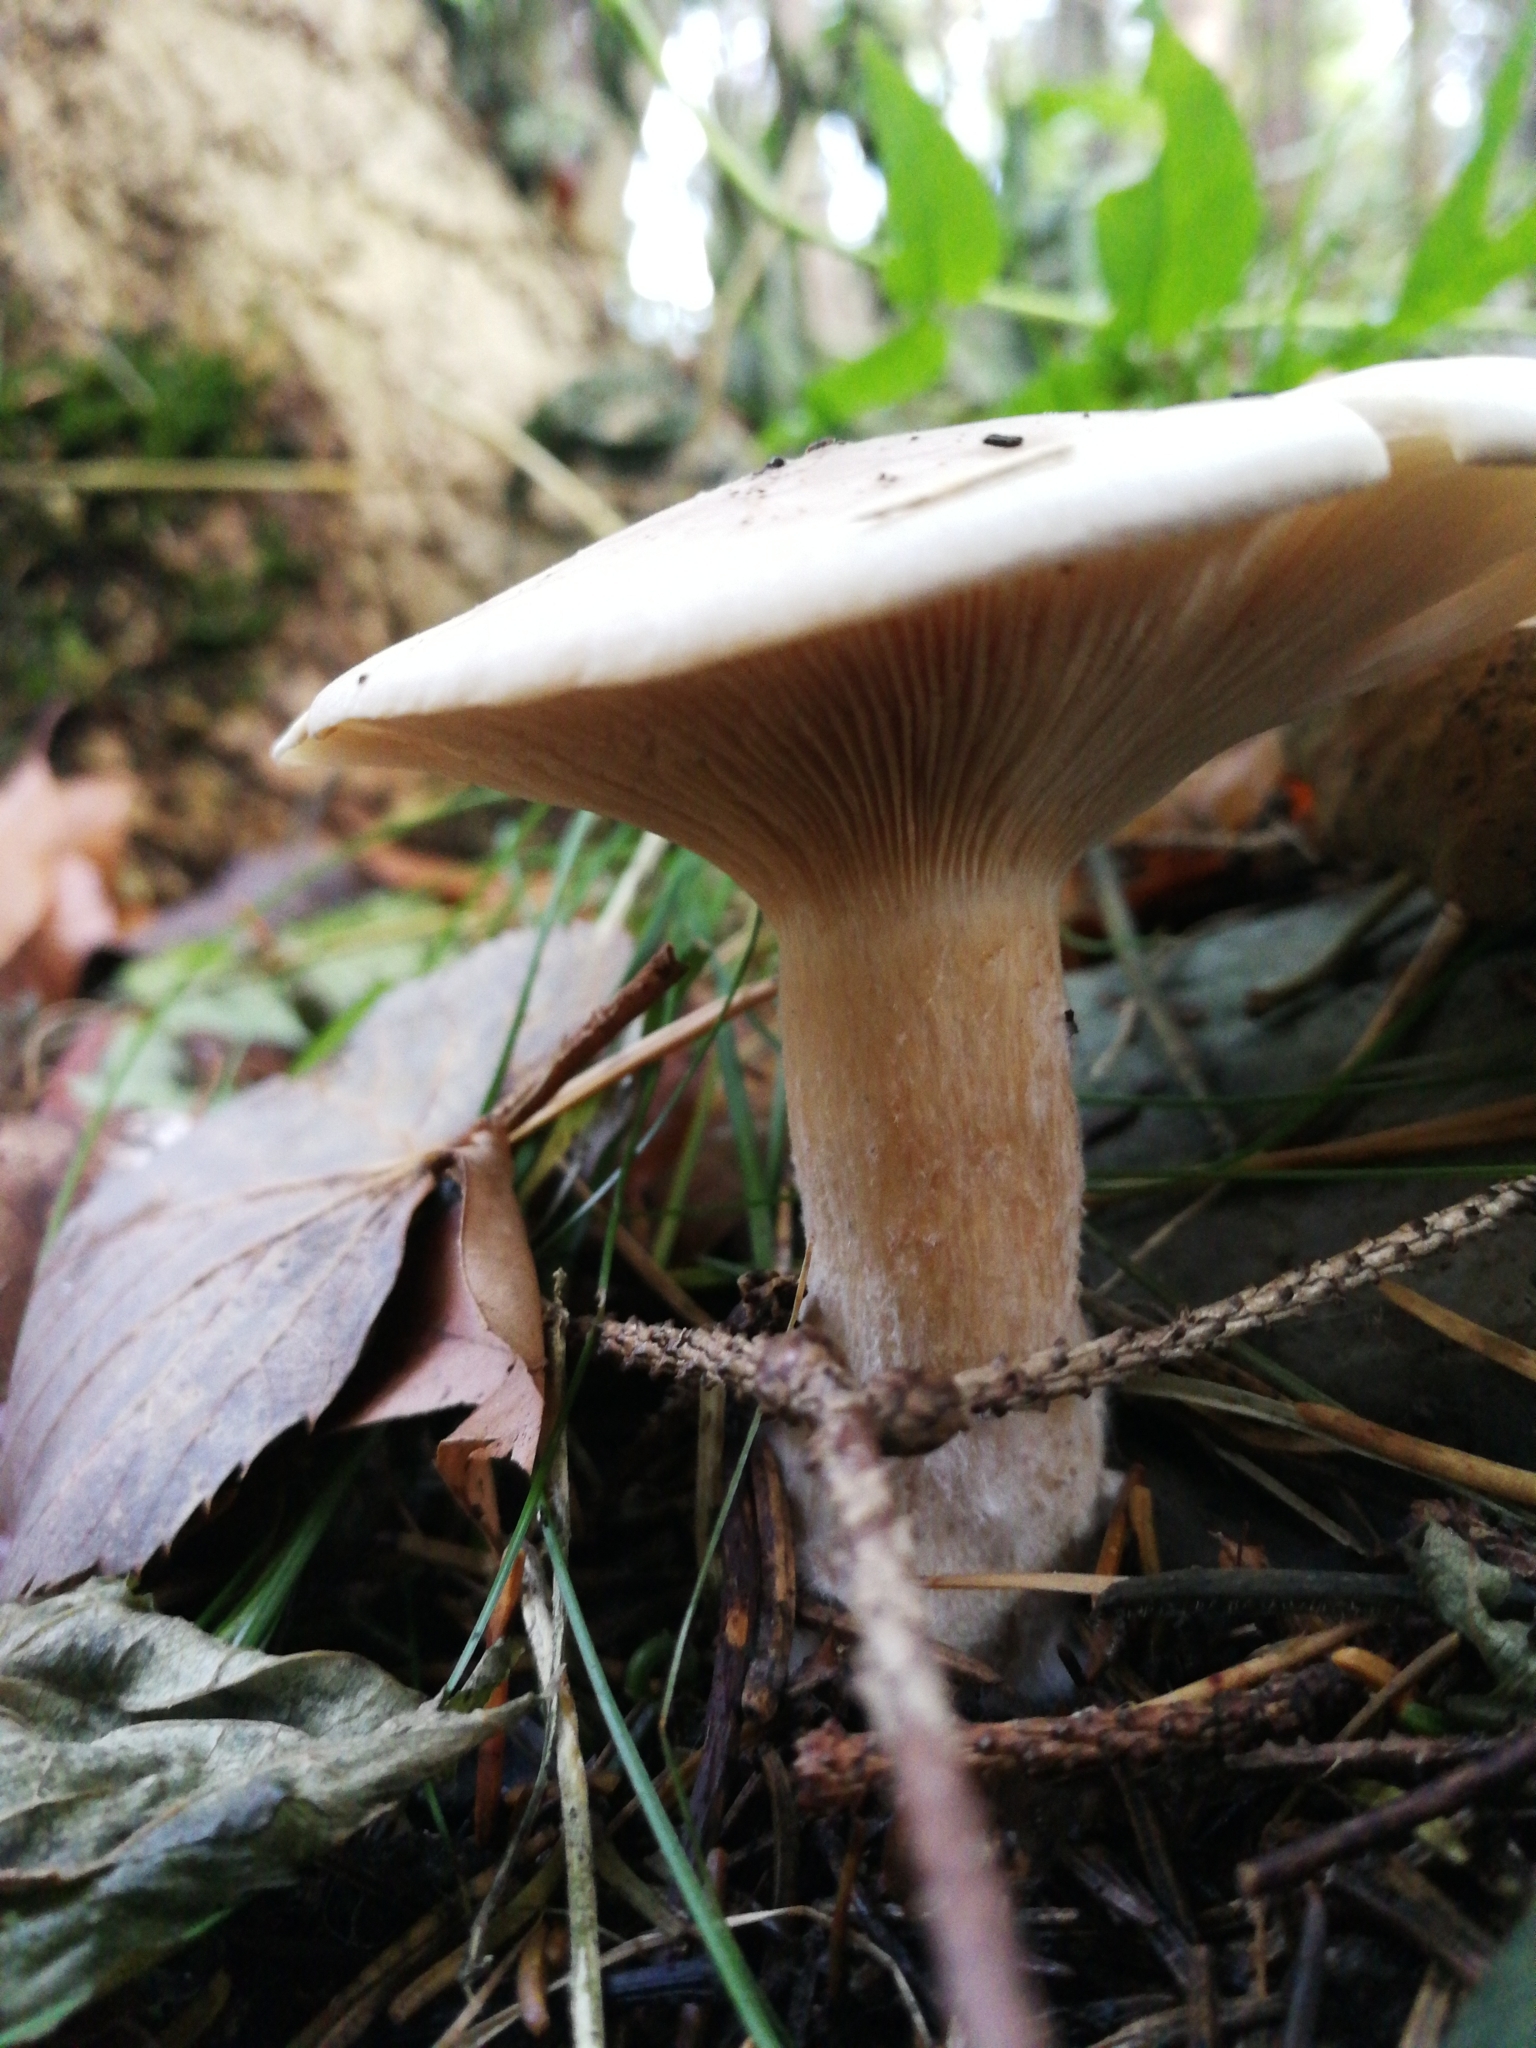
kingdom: Fungi
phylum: Basidiomycota
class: Agaricomycetes
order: Agaricales
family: Tricholomataceae
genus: Clitocybe
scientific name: Clitocybe nebularis
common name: Clouded agaric
